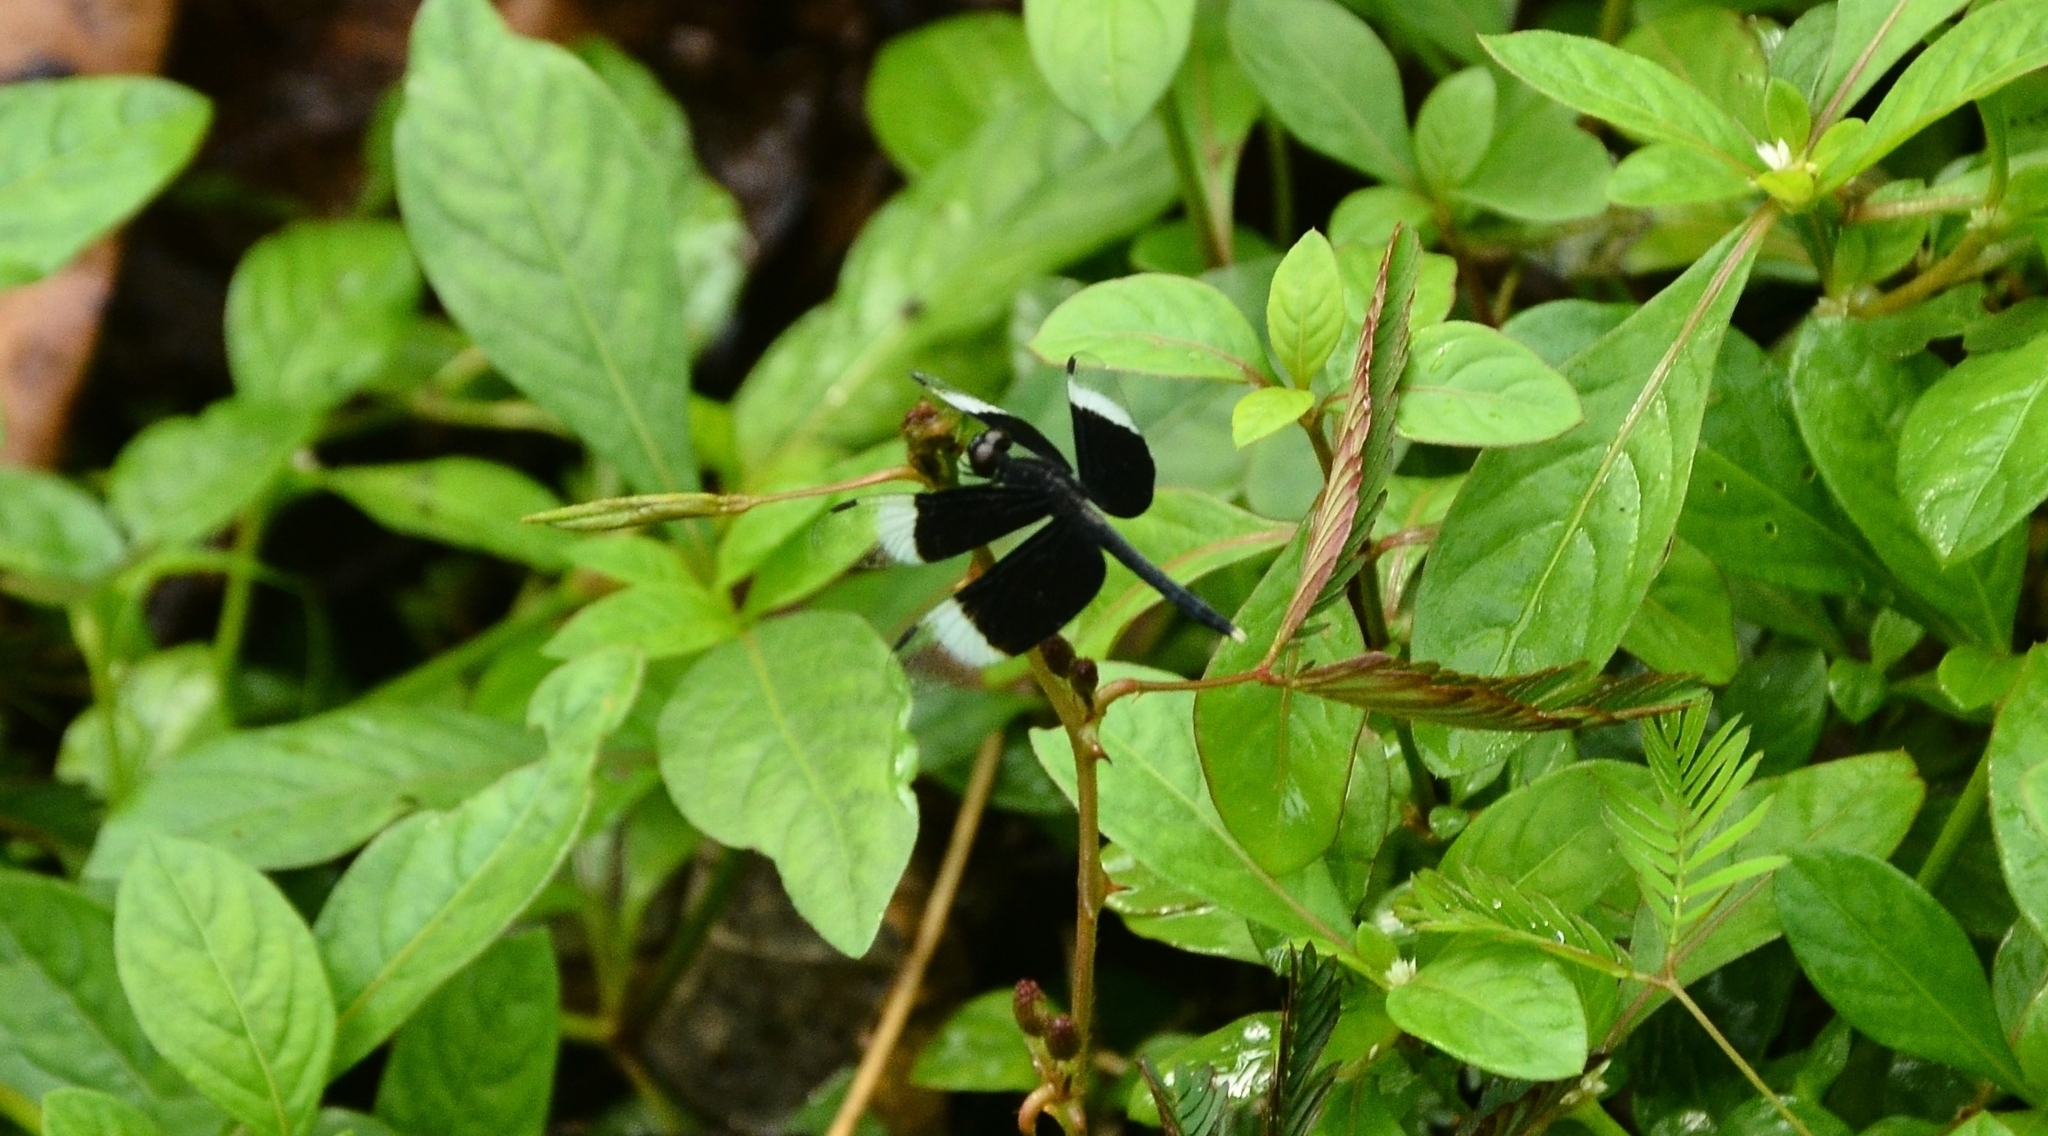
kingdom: Animalia
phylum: Arthropoda
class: Insecta
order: Odonata
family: Libellulidae
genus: Neurothemis
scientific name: Neurothemis tullia
